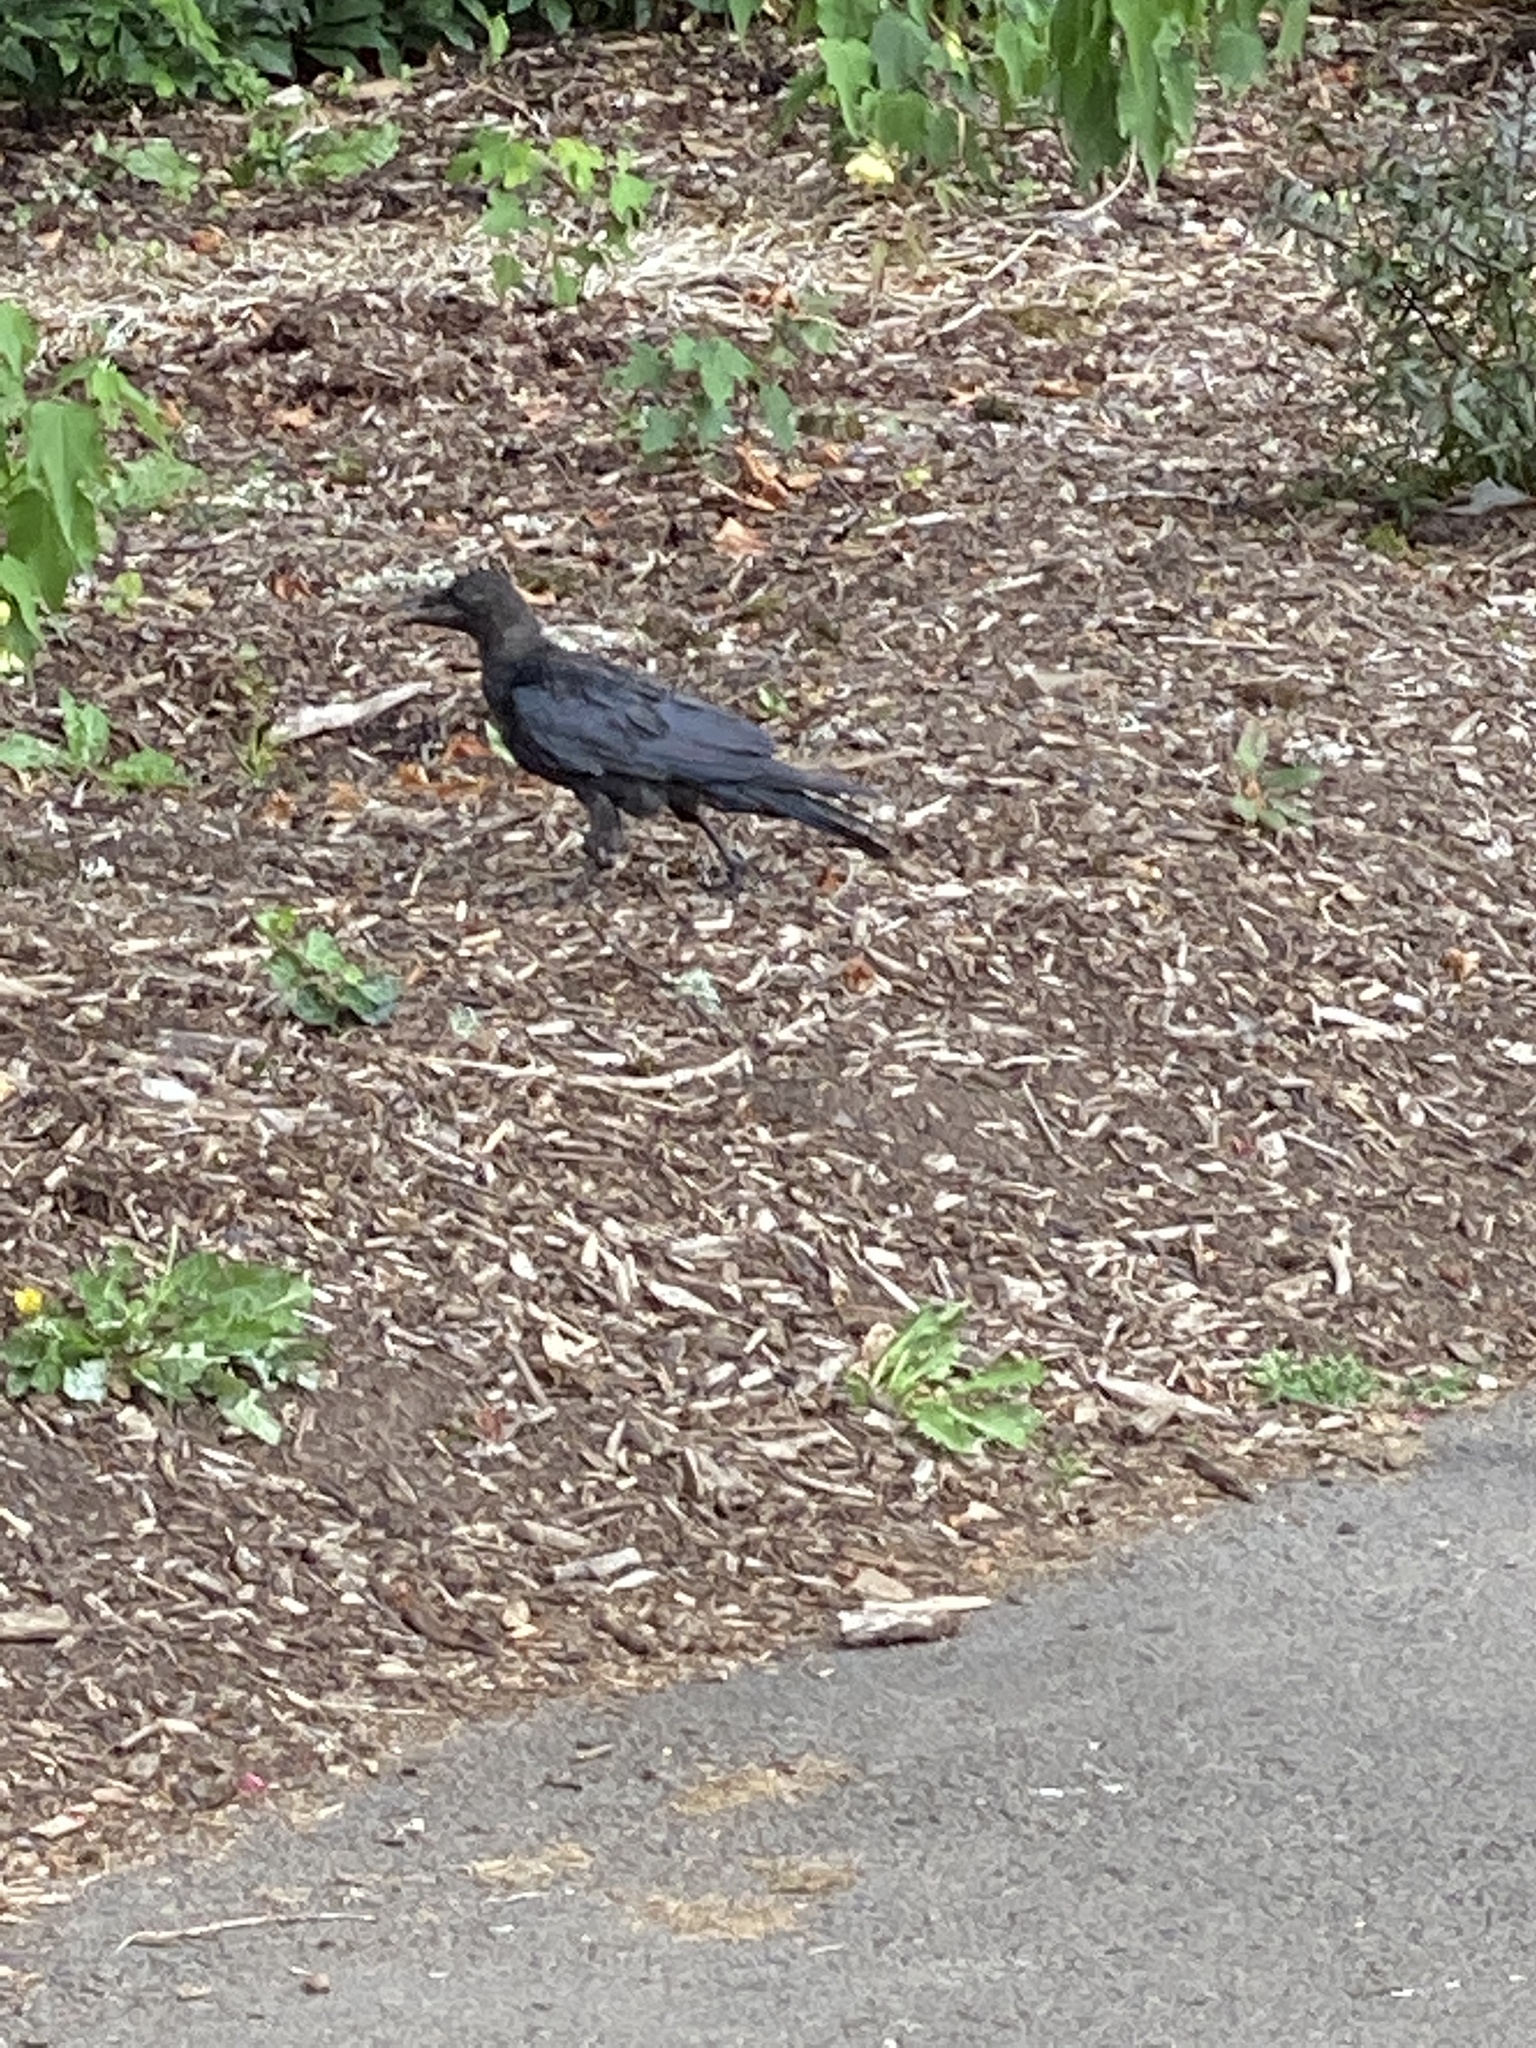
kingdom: Animalia
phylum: Chordata
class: Aves
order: Passeriformes
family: Corvidae
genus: Corvus
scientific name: Corvus brachyrhynchos
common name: American crow
